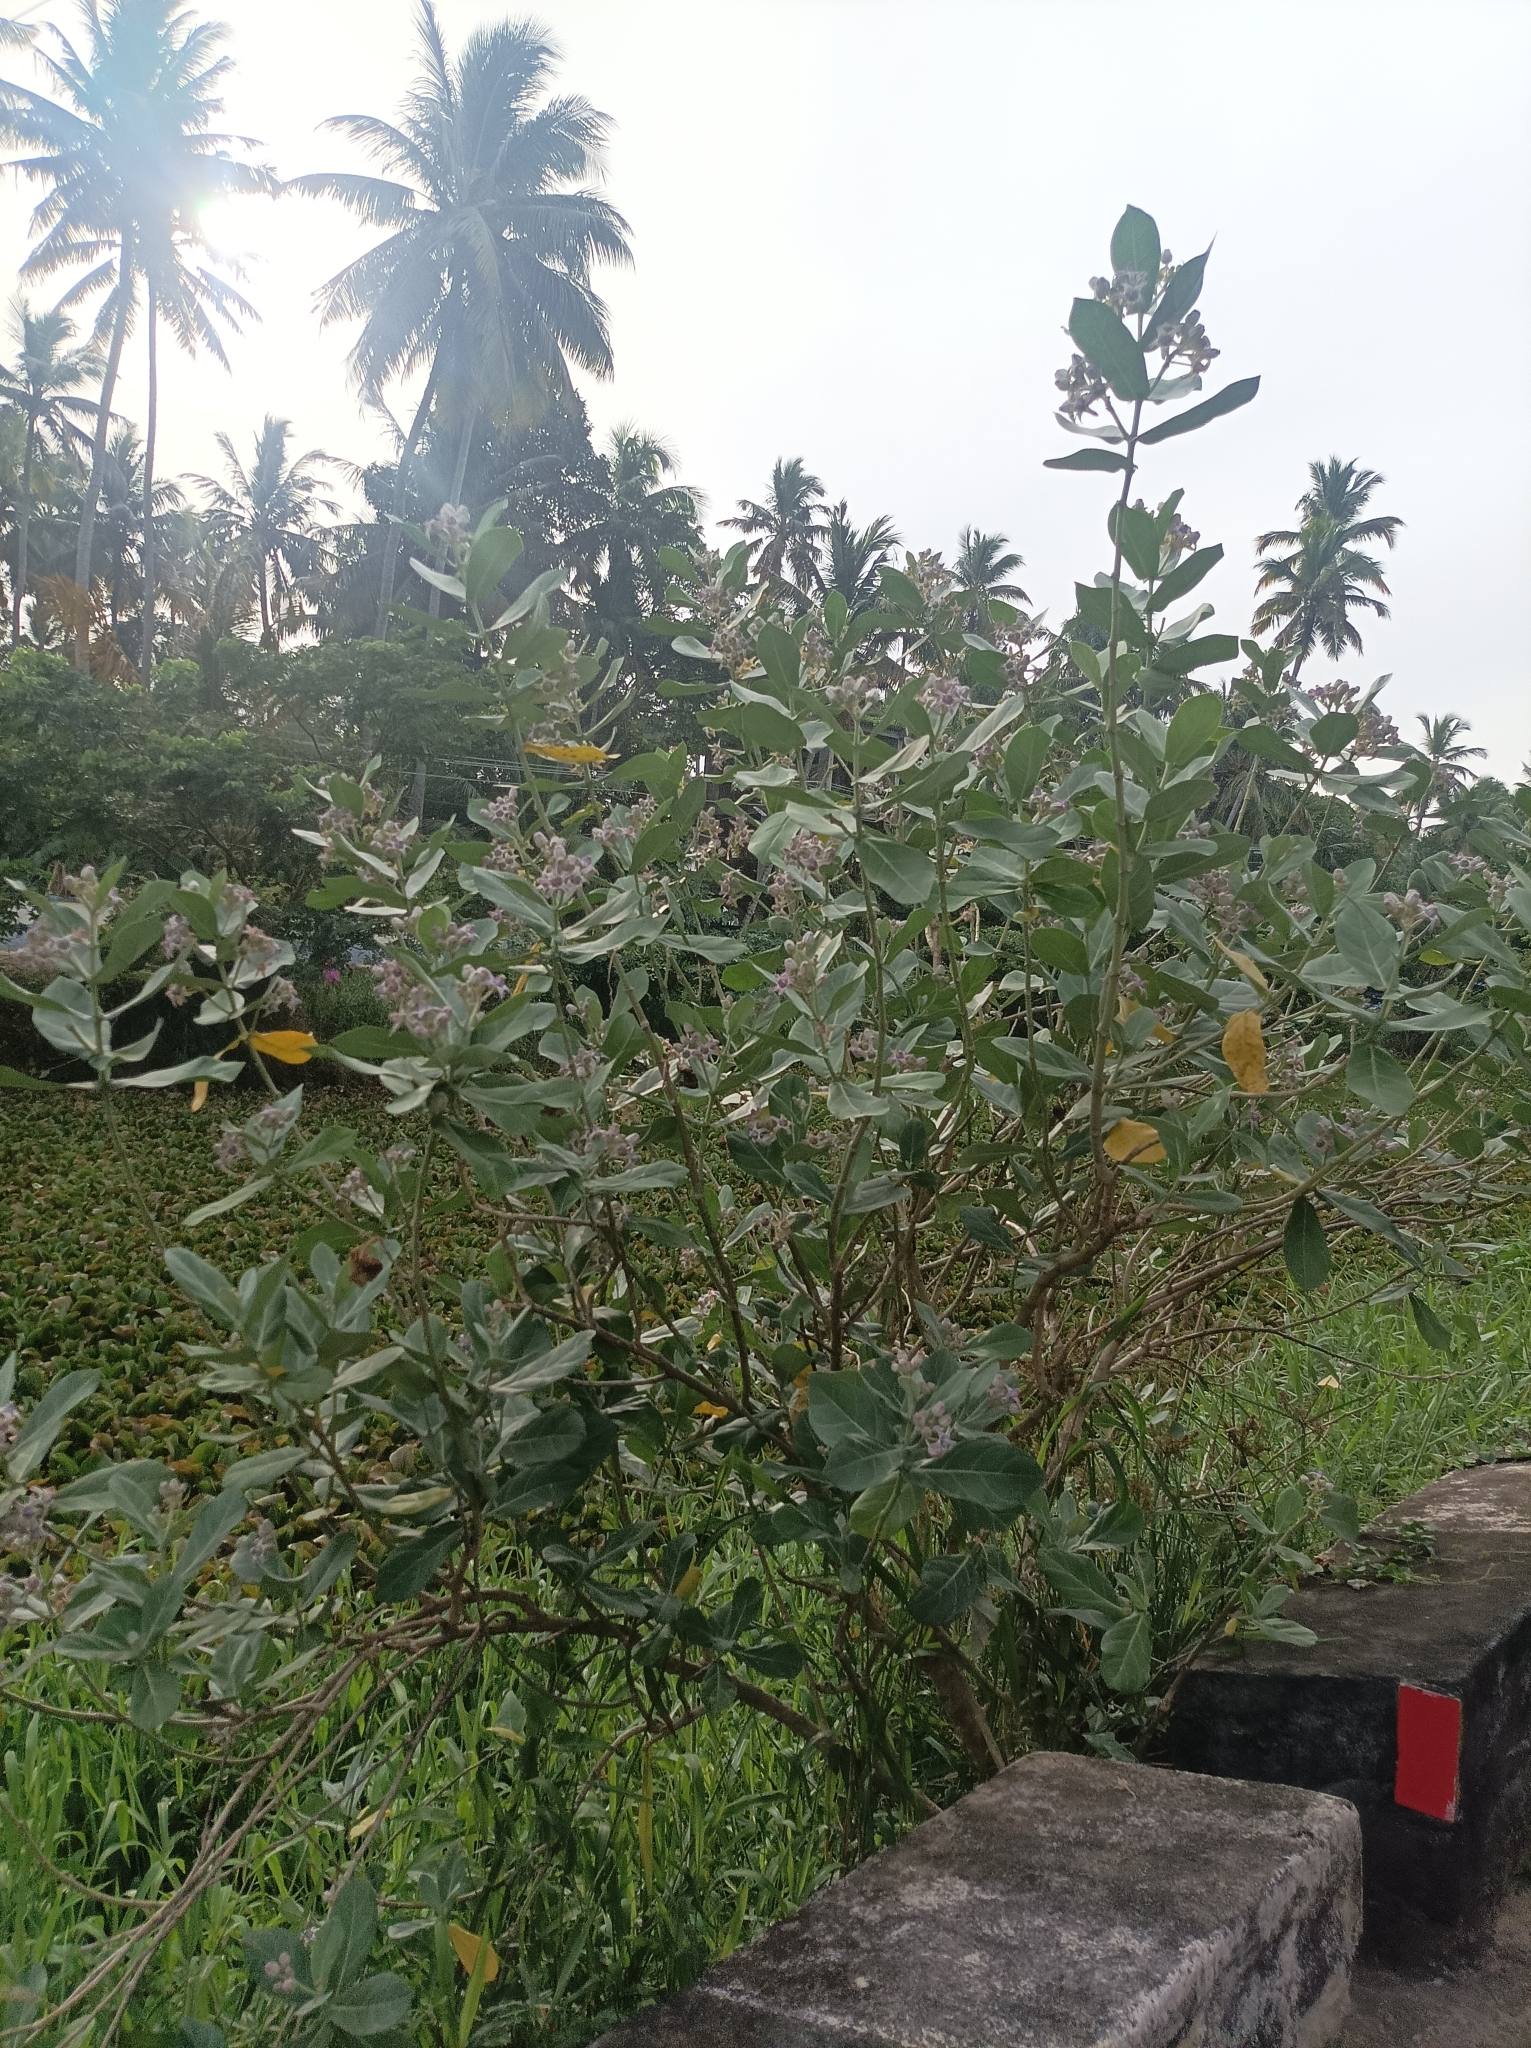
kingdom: Plantae
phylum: Tracheophyta
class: Magnoliopsida
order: Gentianales
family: Apocynaceae
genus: Calotropis
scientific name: Calotropis gigantea
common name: Crown flower
